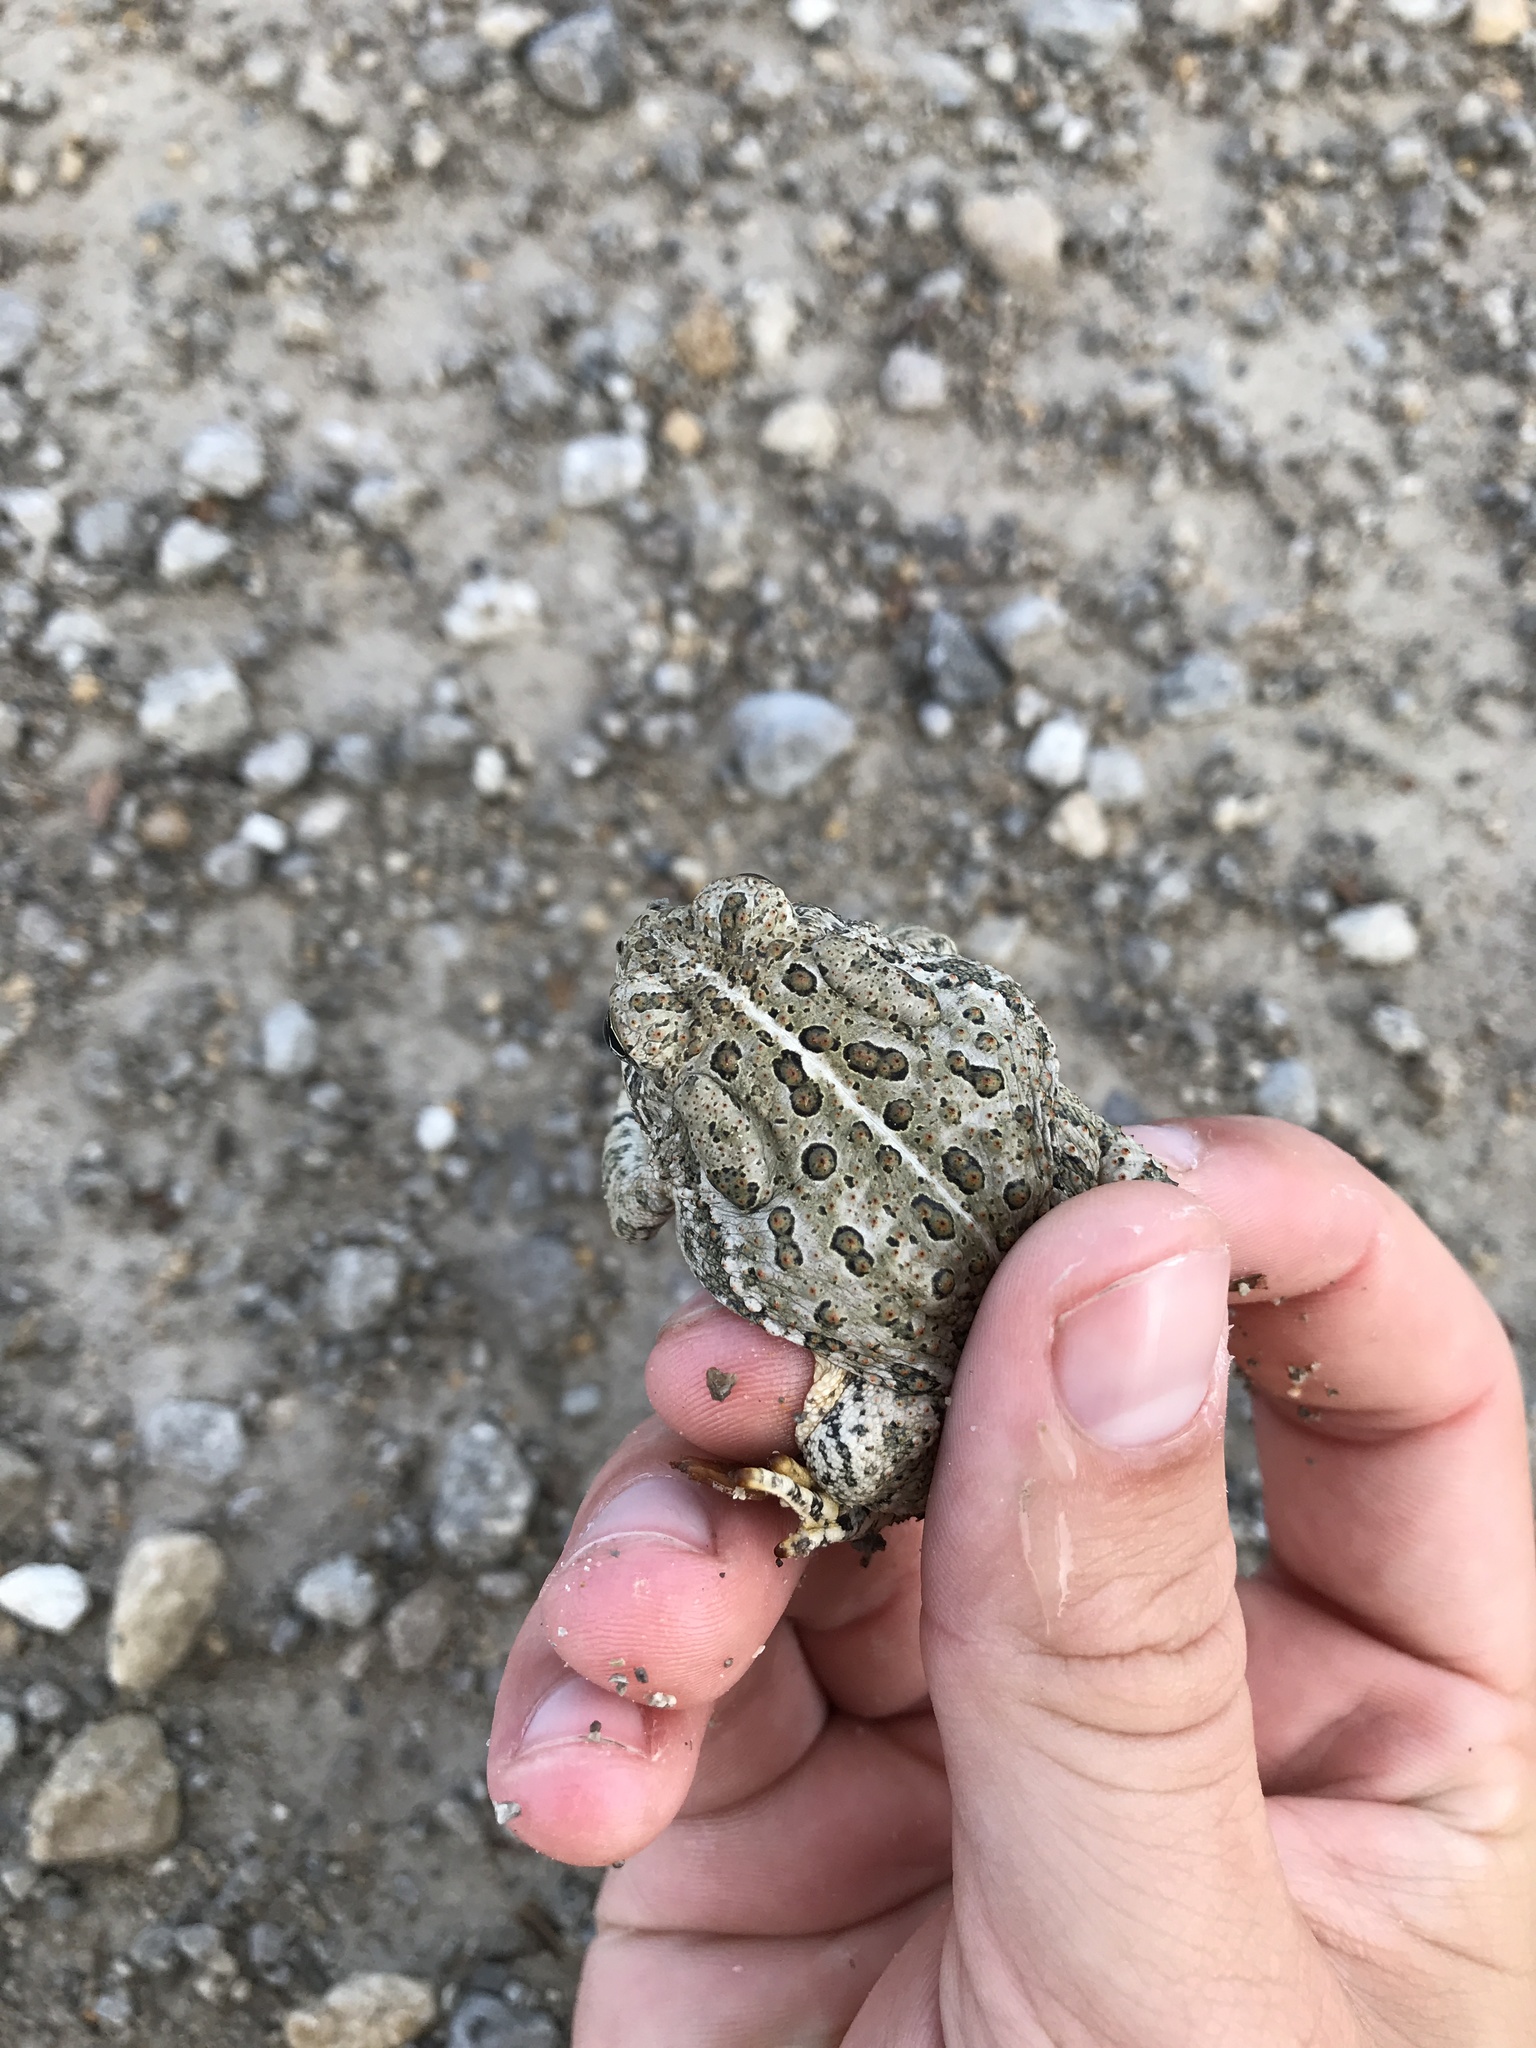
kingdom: Animalia
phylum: Chordata
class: Amphibia
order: Anura
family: Bufonidae
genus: Anaxyrus
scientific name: Anaxyrus woodhousii
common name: Woodhouse's toad
